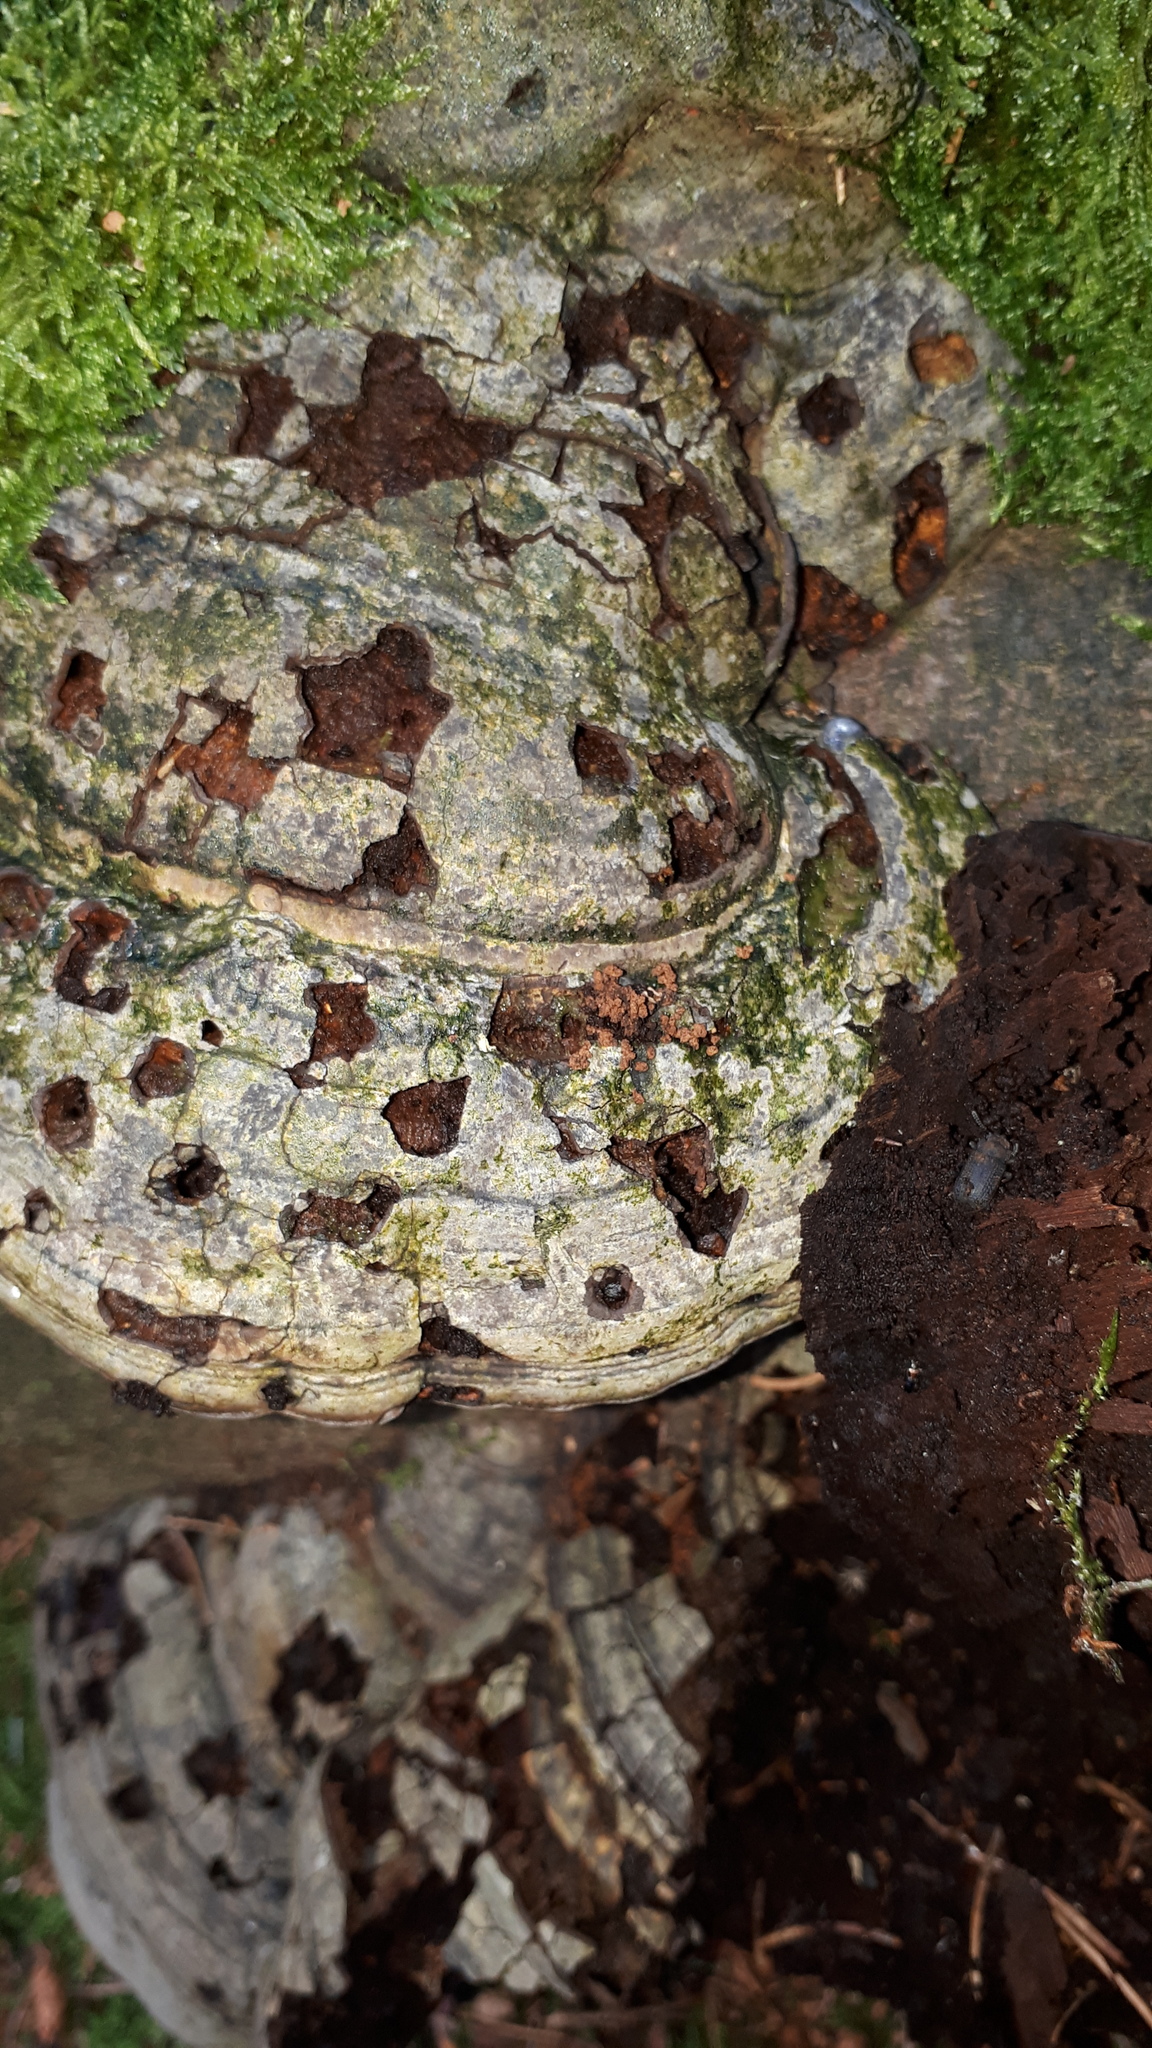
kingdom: Animalia
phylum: Arthropoda
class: Insecta
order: Coleoptera
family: Tenebrionidae
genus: Bolitophagus
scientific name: Bolitophagus reticulatus
